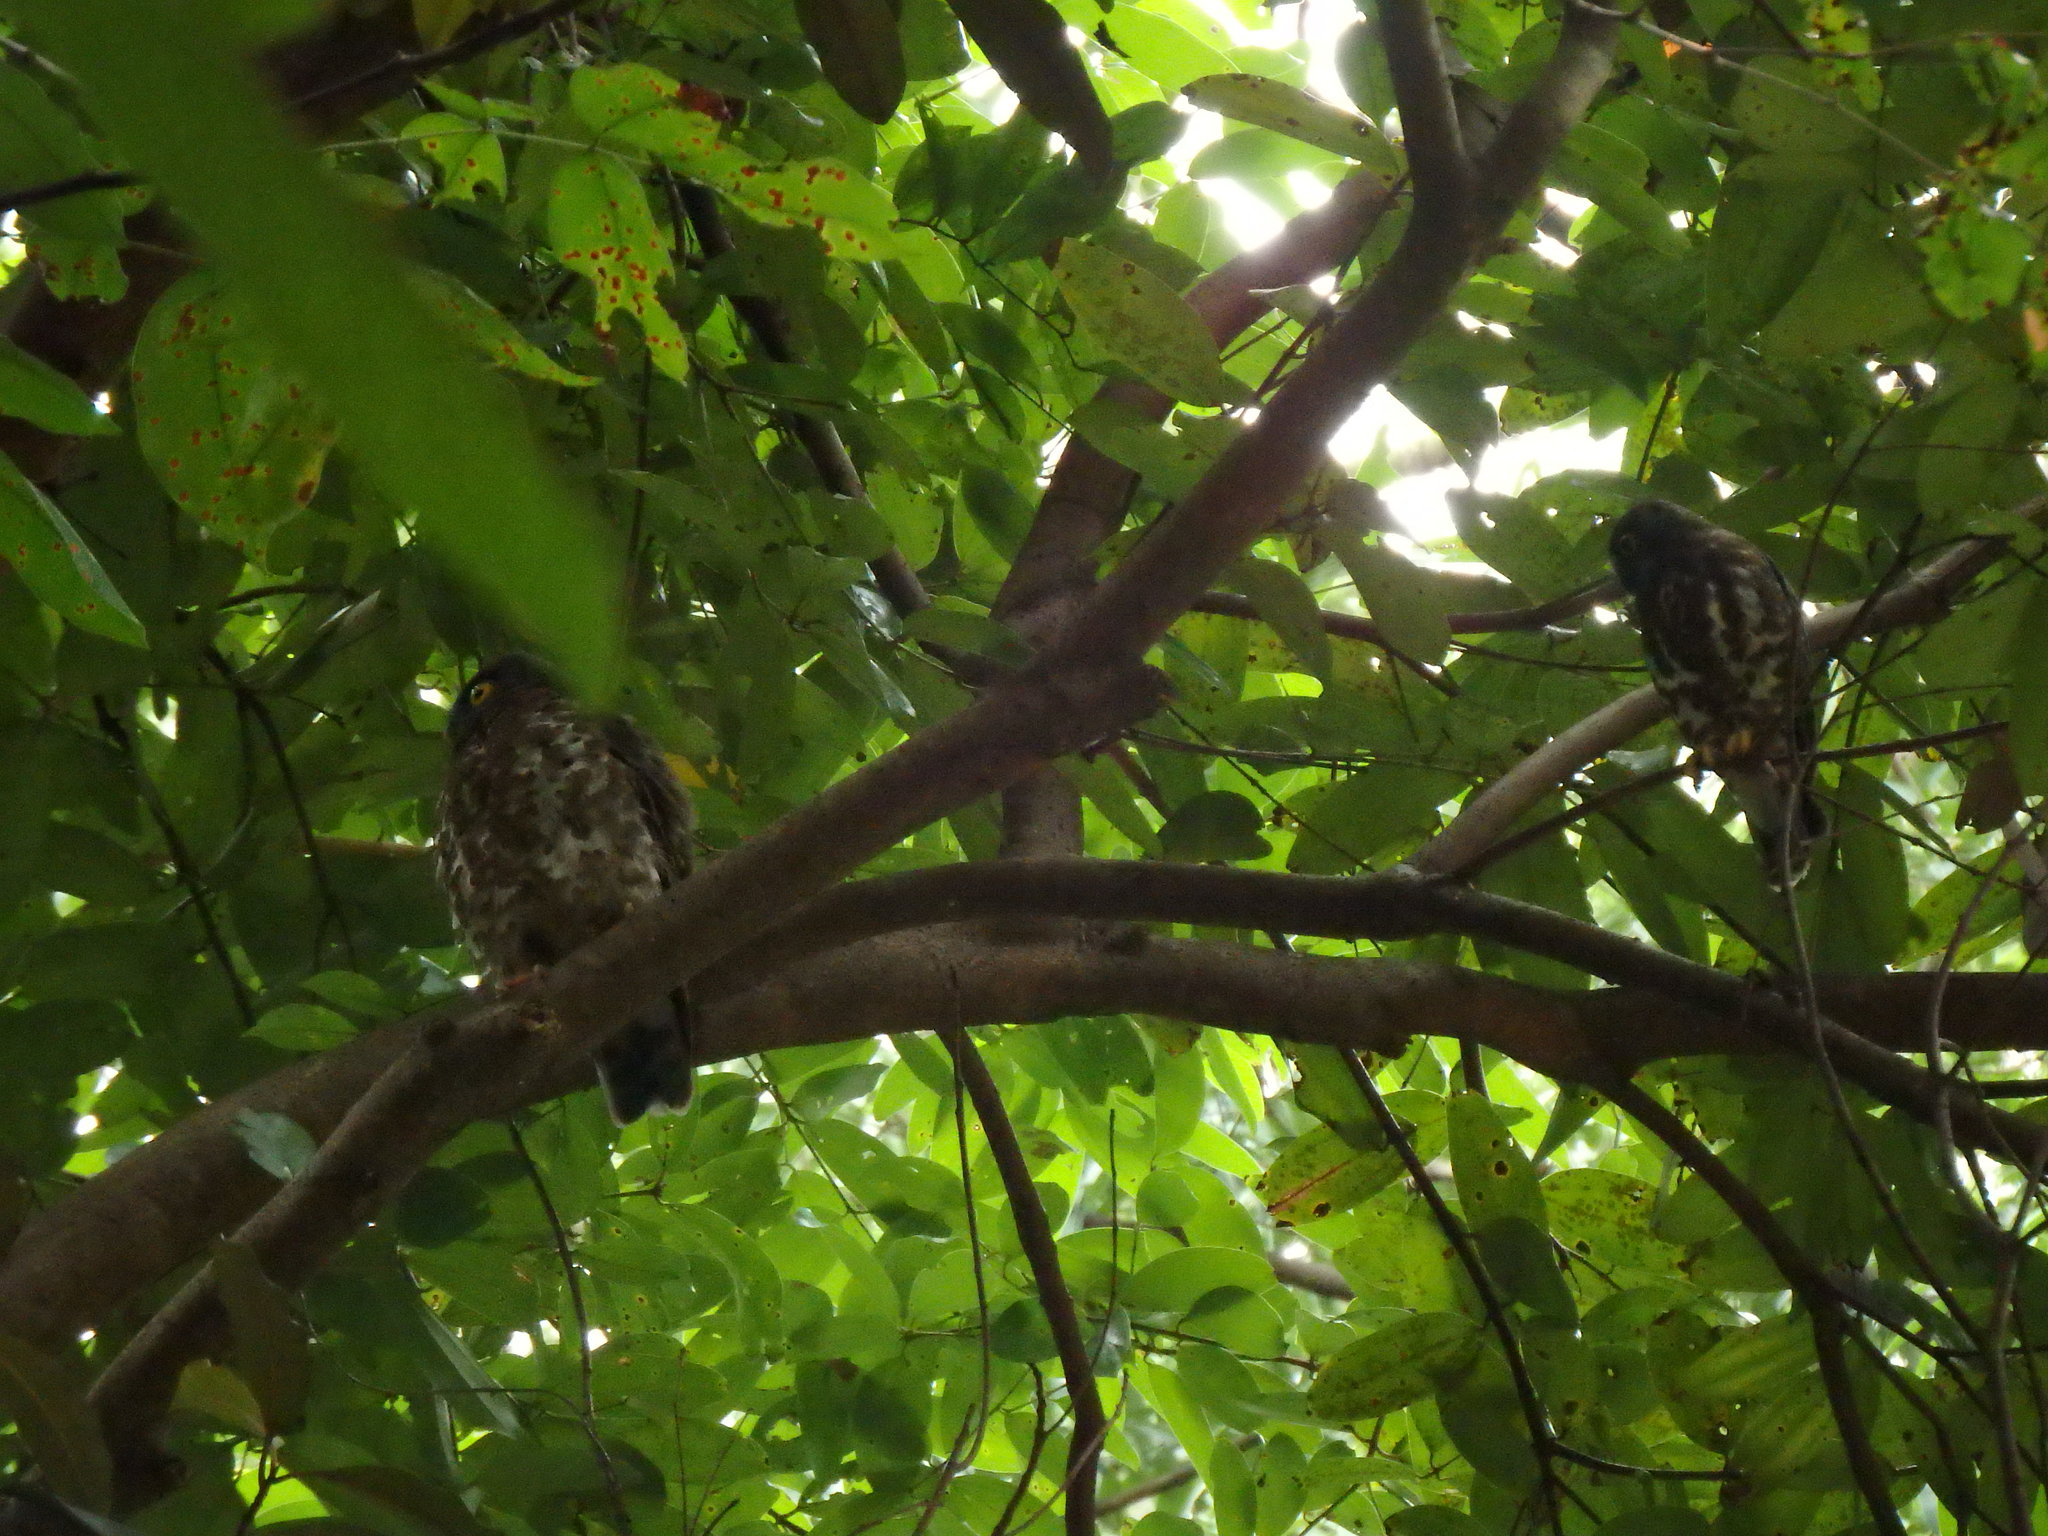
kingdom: Animalia
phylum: Chordata
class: Aves
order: Strigiformes
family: Strigidae
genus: Ninox
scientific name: Ninox scutulata
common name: Brown hawk-owl
